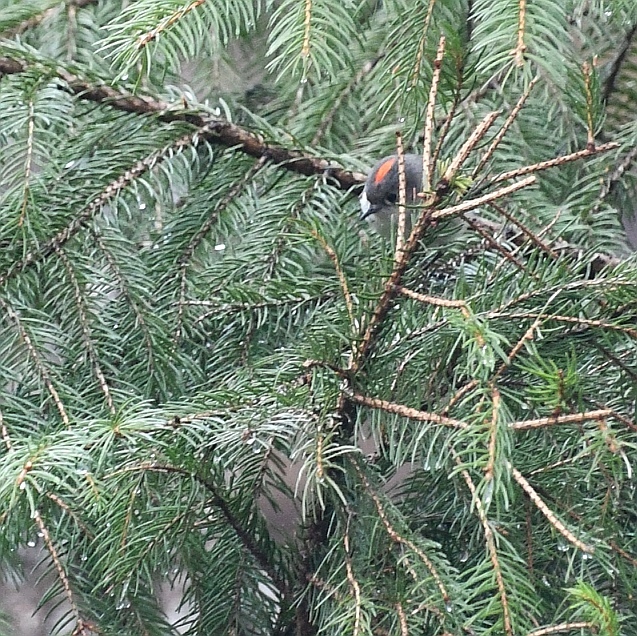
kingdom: Animalia
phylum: Chordata
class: Aves
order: Passeriformes
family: Regulidae
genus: Regulus
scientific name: Regulus calendula
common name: Ruby-crowned kinglet
